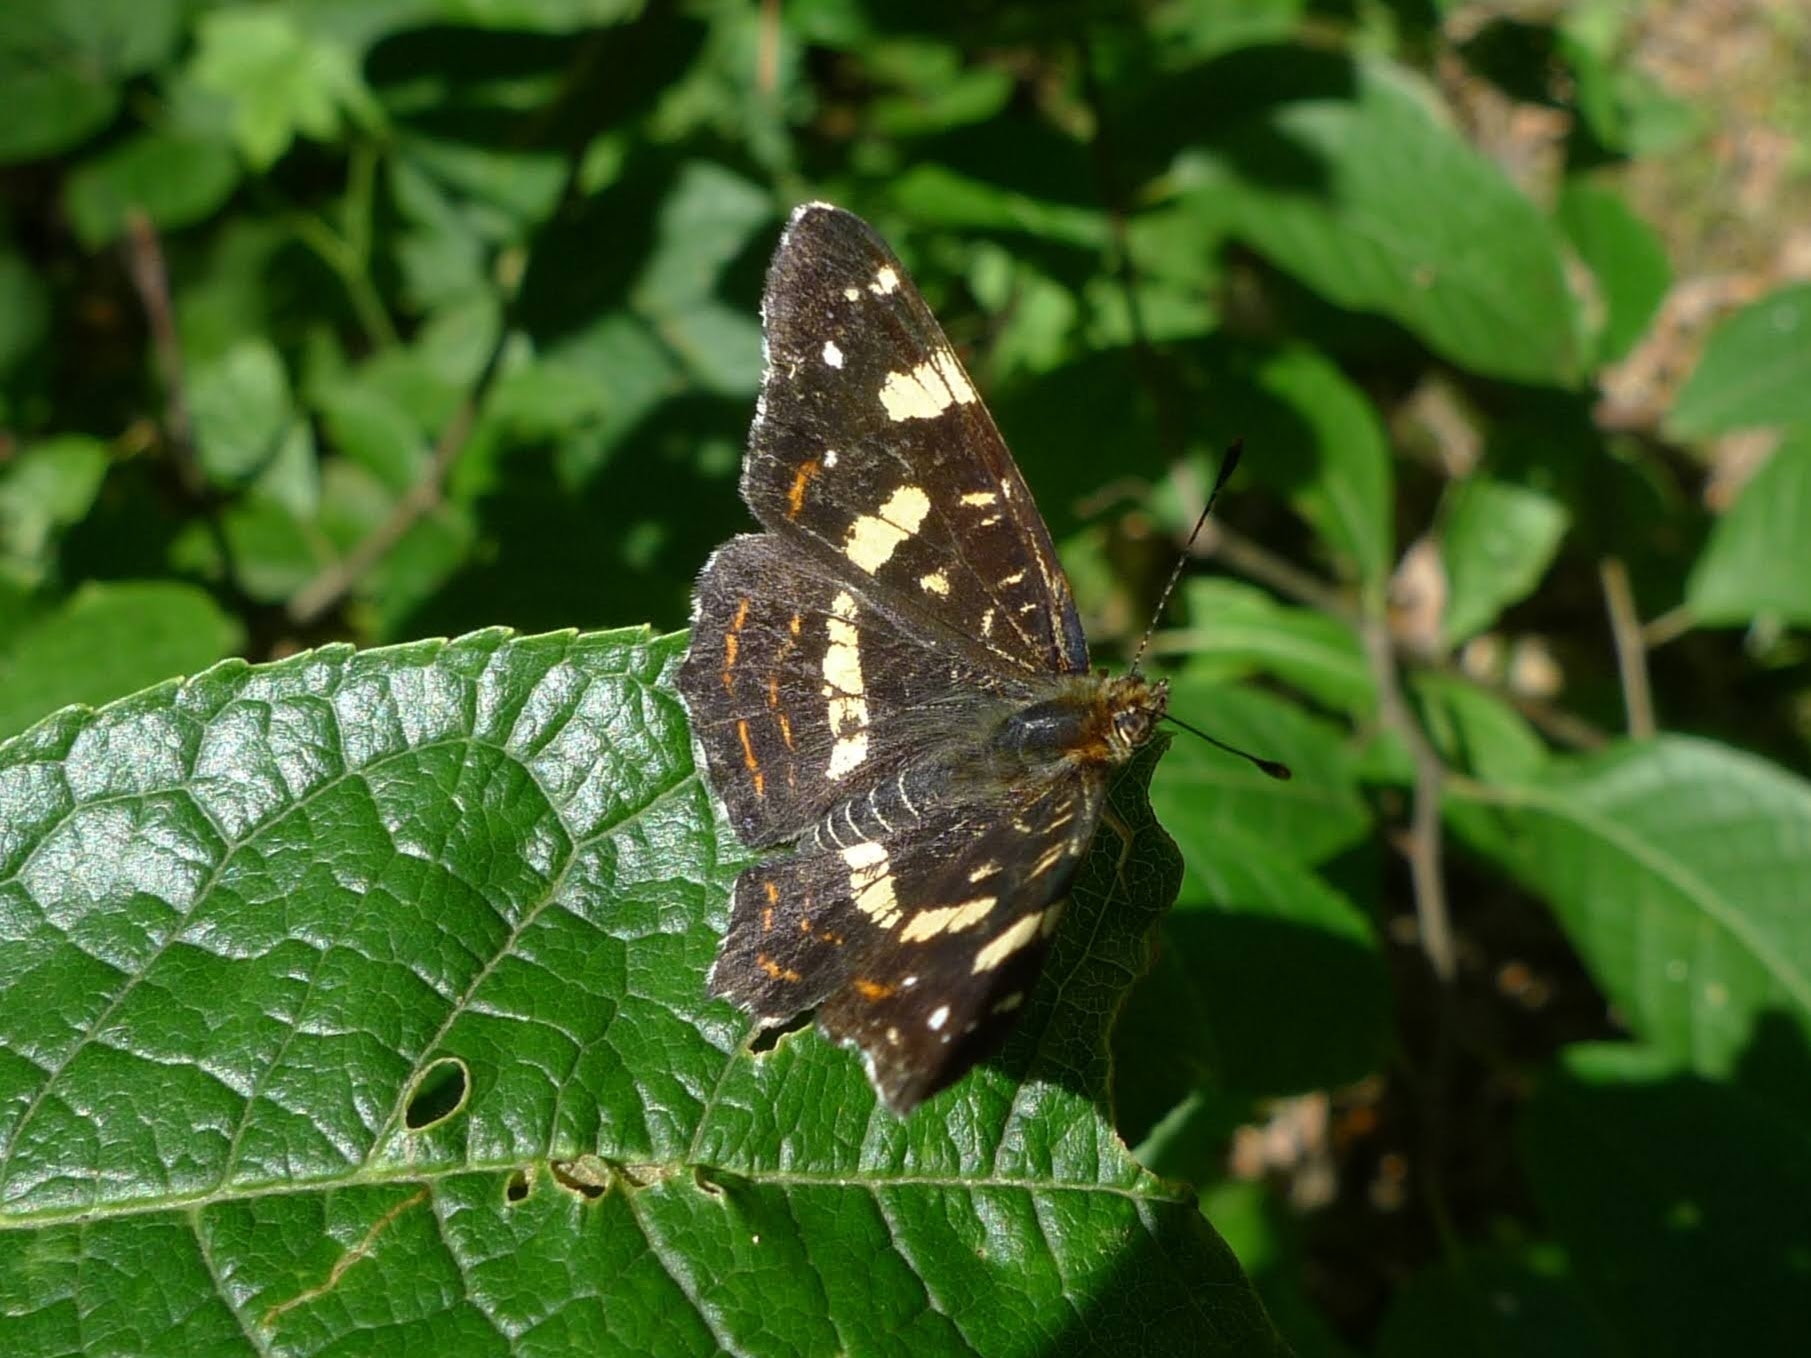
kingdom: Animalia
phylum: Arthropoda
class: Insecta
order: Lepidoptera
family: Nymphalidae
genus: Araschnia
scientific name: Araschnia levana
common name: Map butterfly
